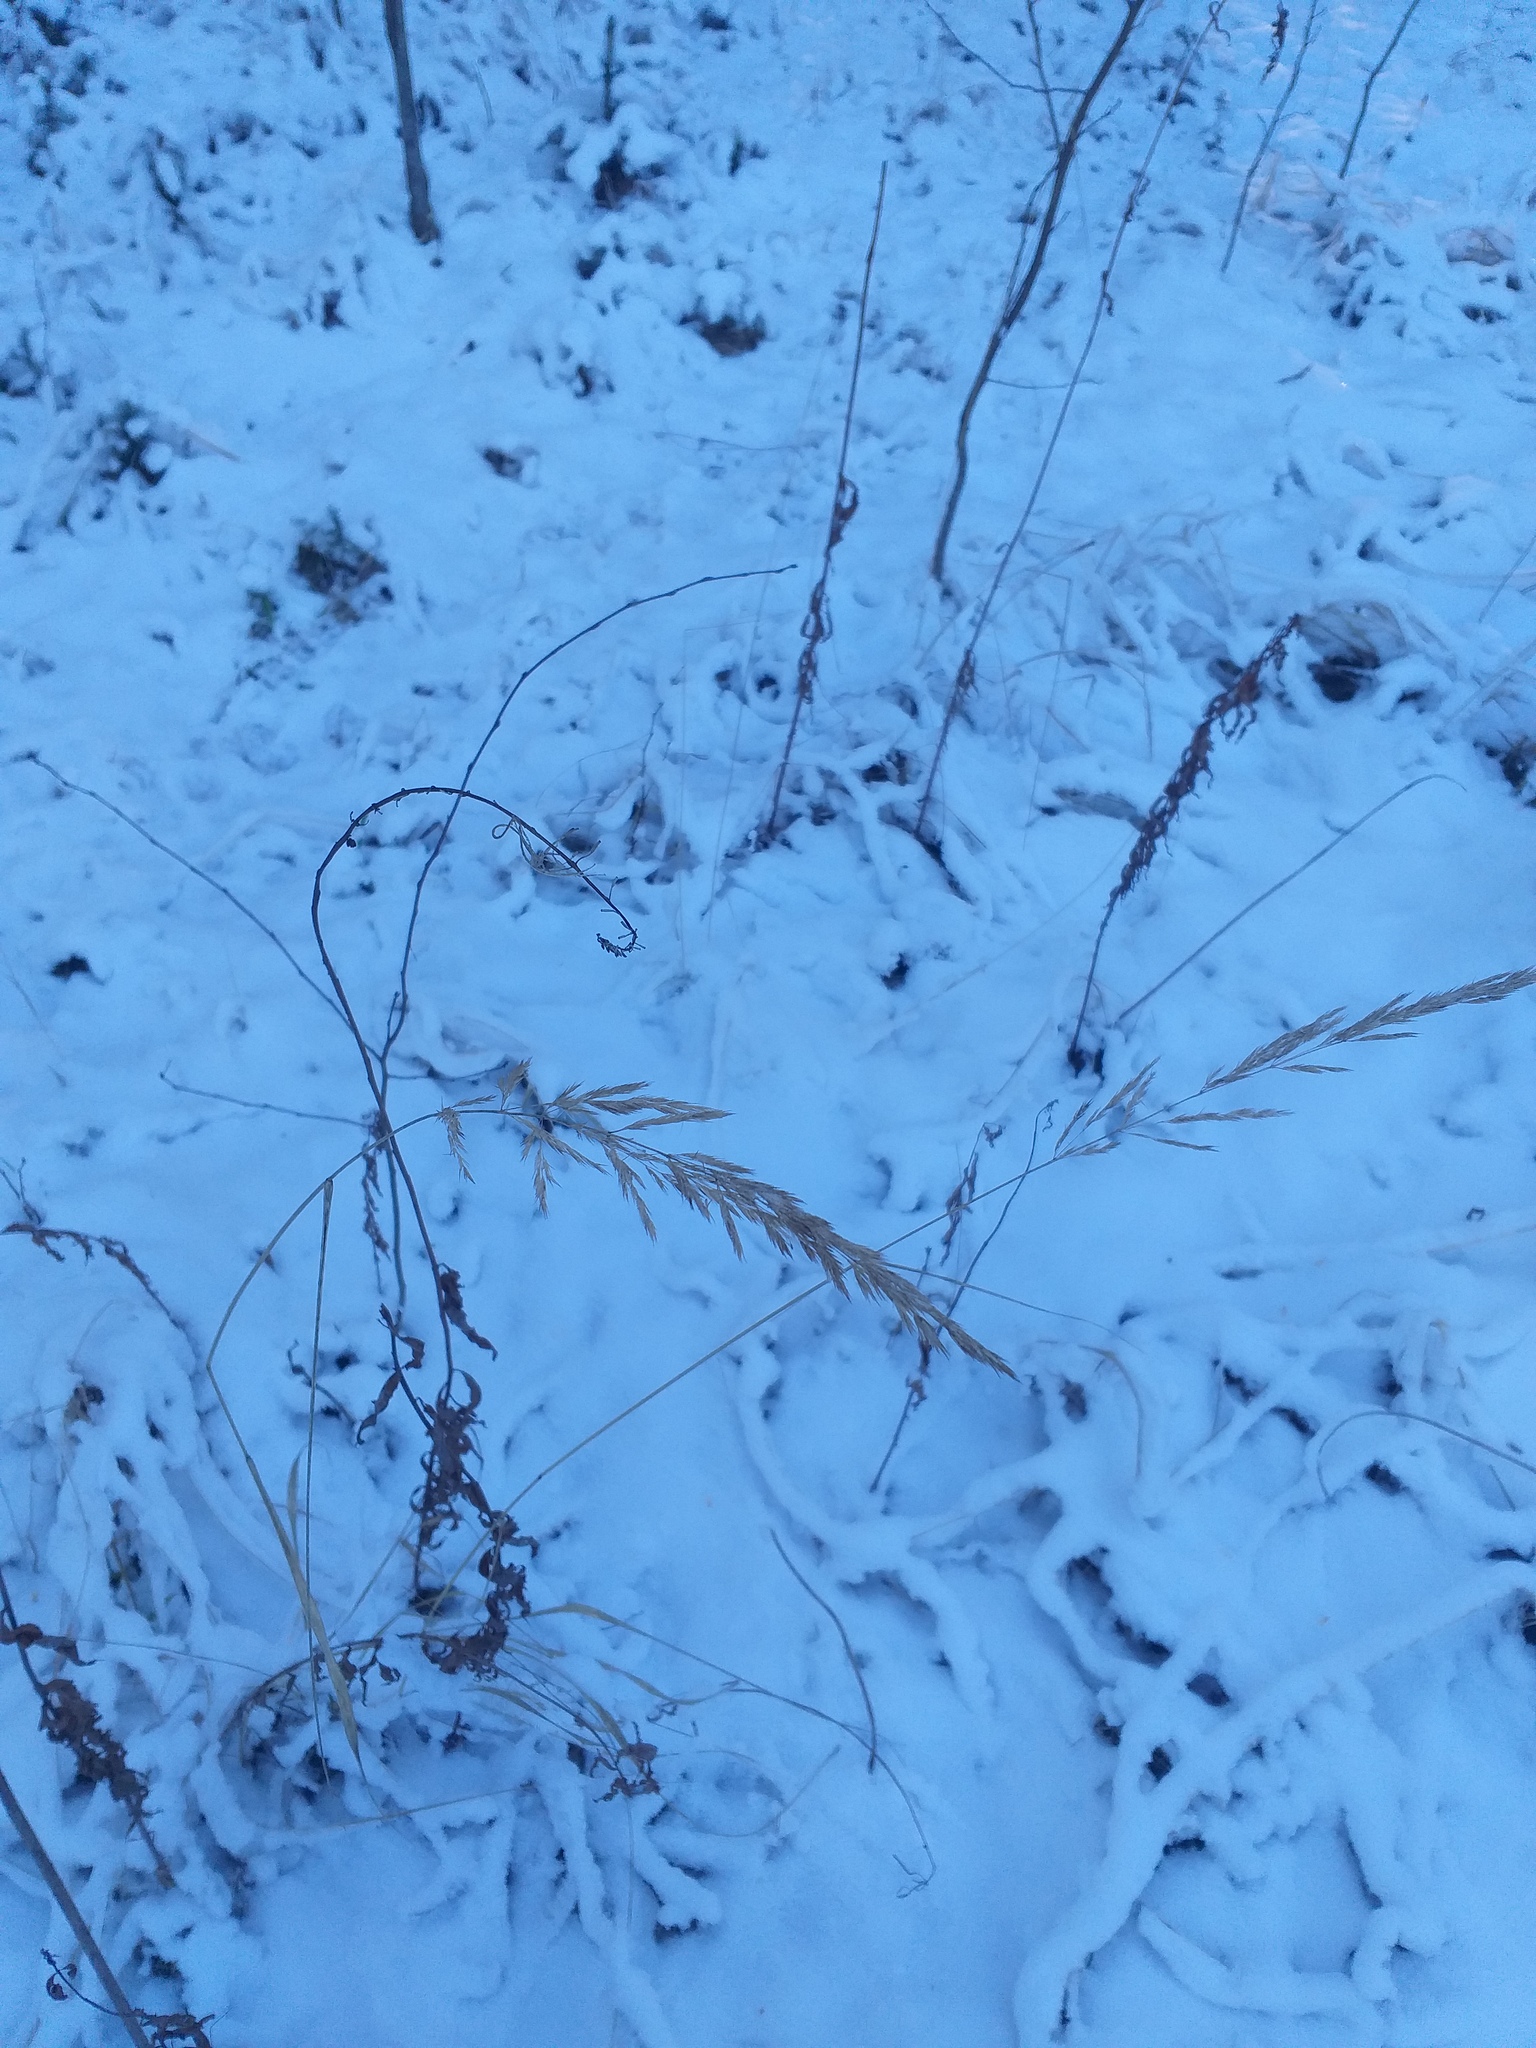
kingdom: Plantae
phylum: Tracheophyta
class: Liliopsida
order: Poales
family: Poaceae
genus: Calamagrostis
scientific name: Calamagrostis epigejos
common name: Wood small-reed
